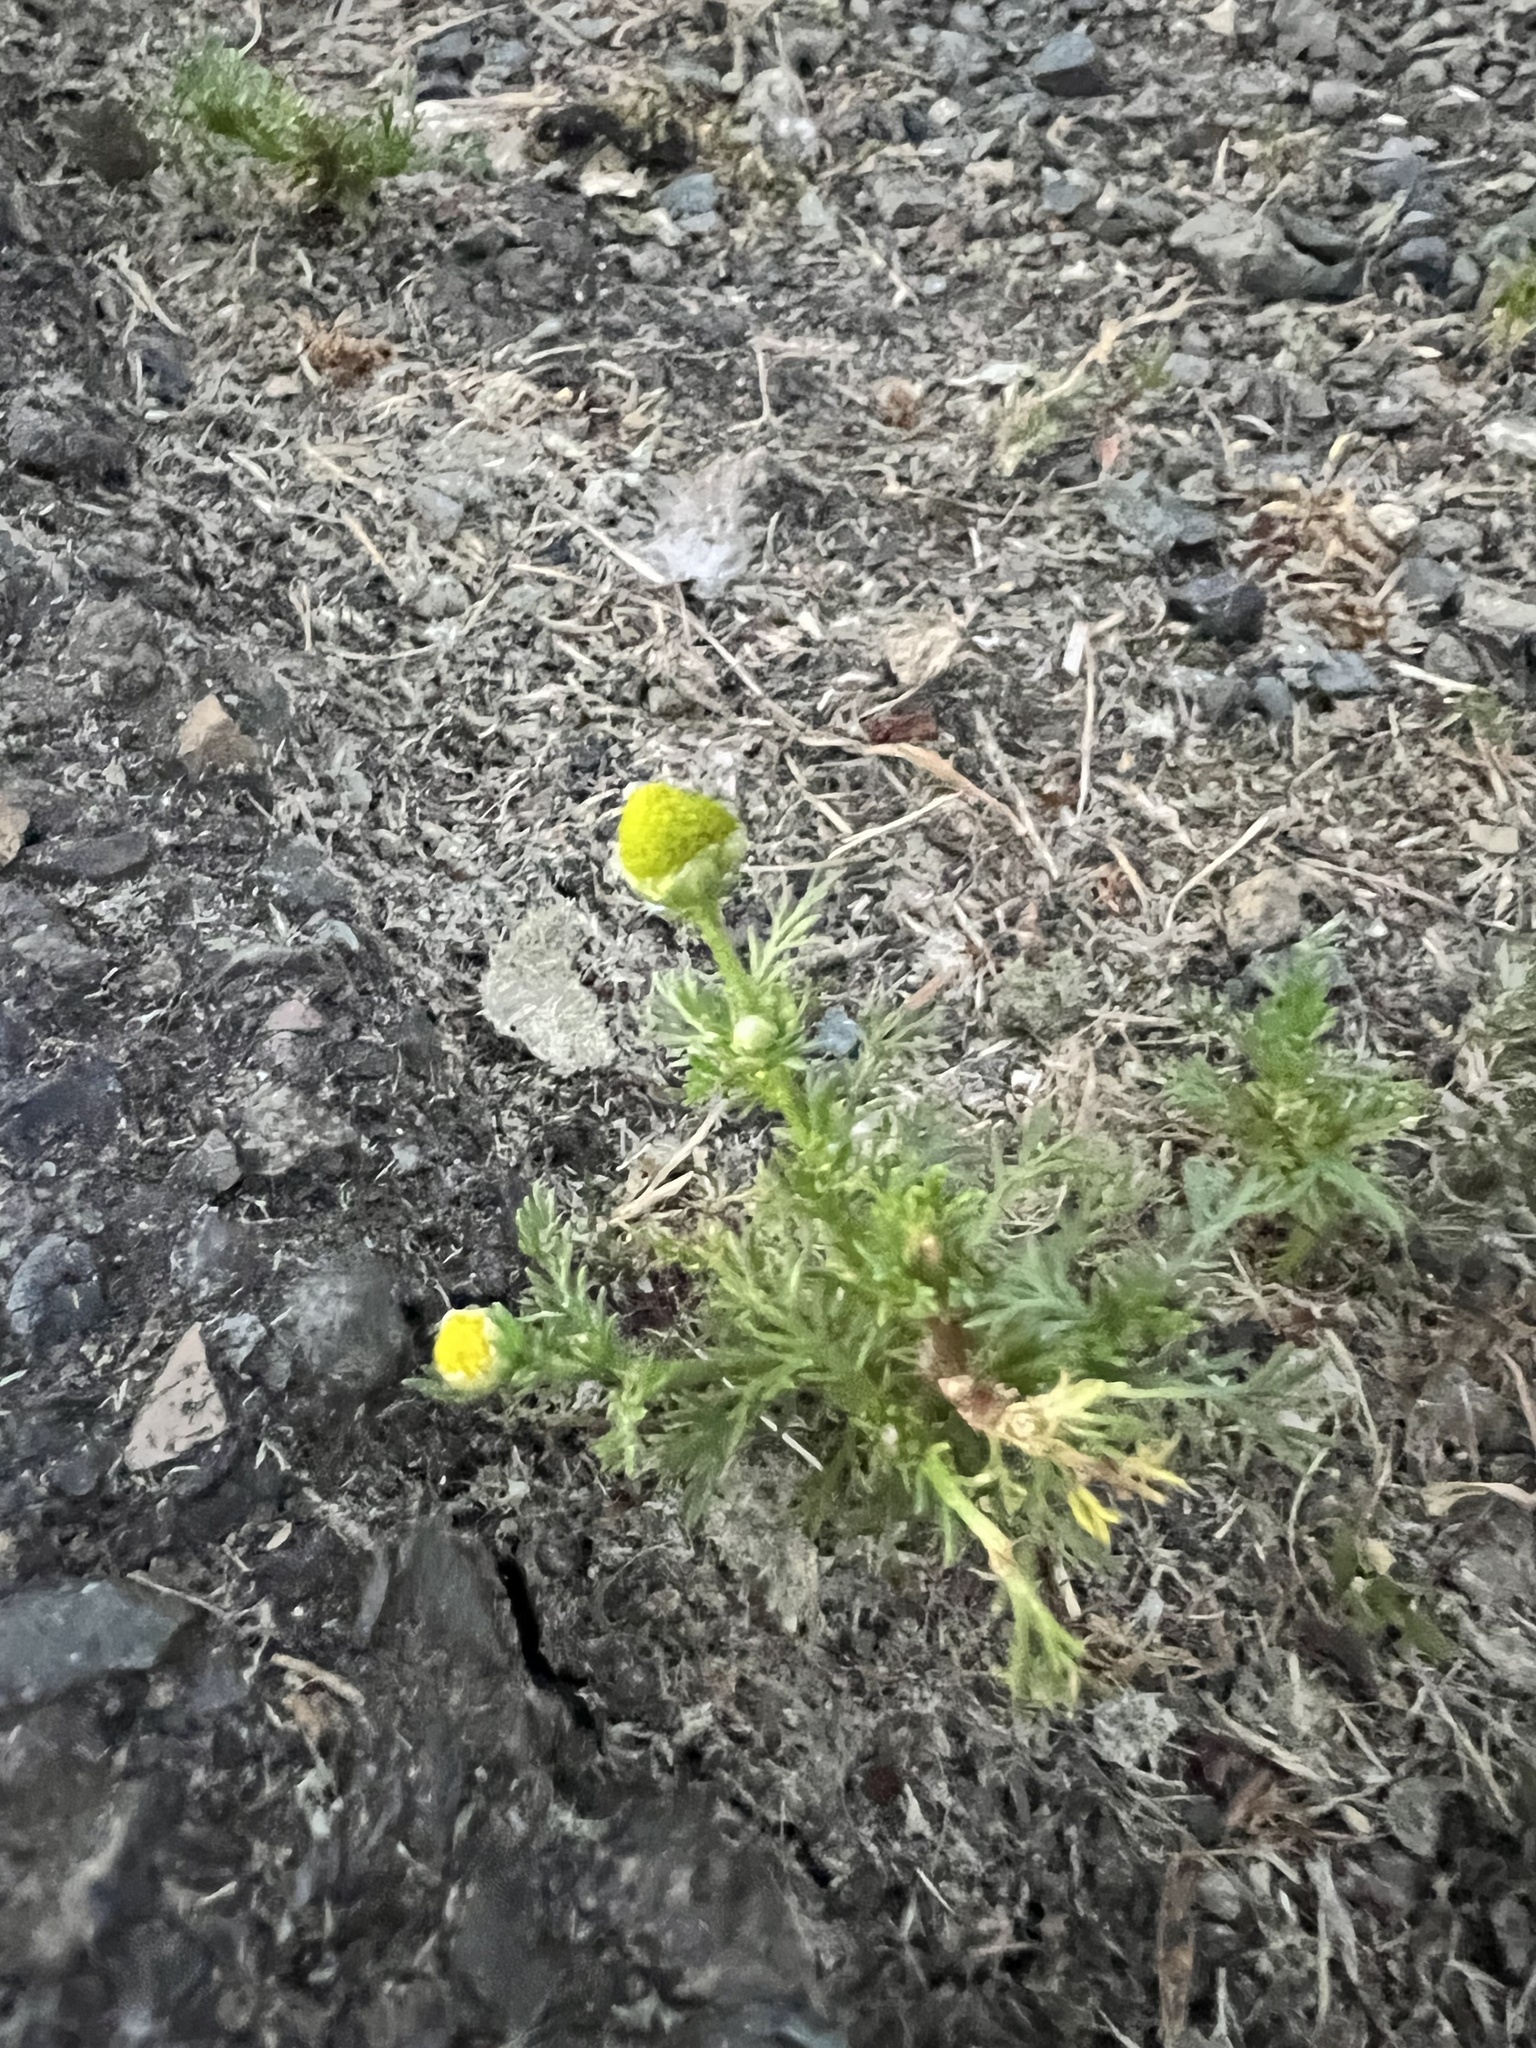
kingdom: Plantae
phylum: Tracheophyta
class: Magnoliopsida
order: Asterales
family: Asteraceae
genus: Matricaria
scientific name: Matricaria discoidea
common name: Disc mayweed
